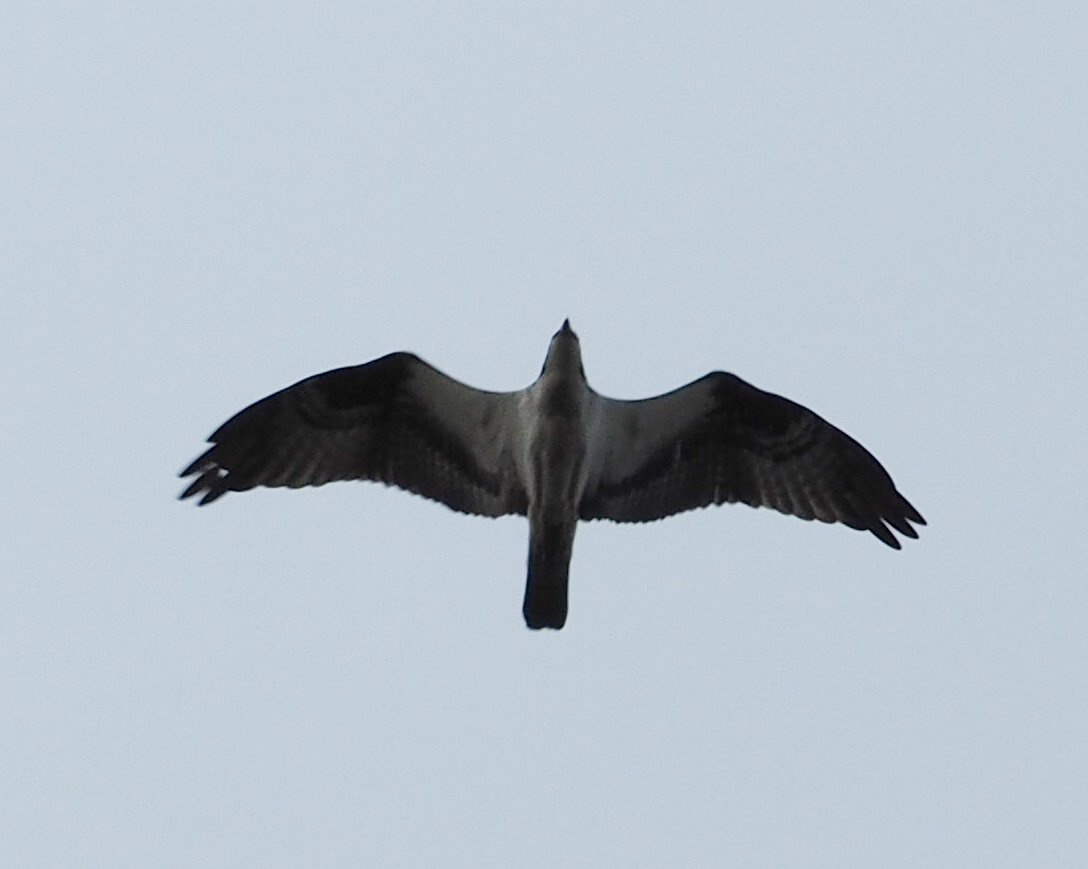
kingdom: Animalia
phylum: Chordata
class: Aves
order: Accipitriformes
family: Pandionidae
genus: Pandion
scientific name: Pandion haliaetus
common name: Osprey
